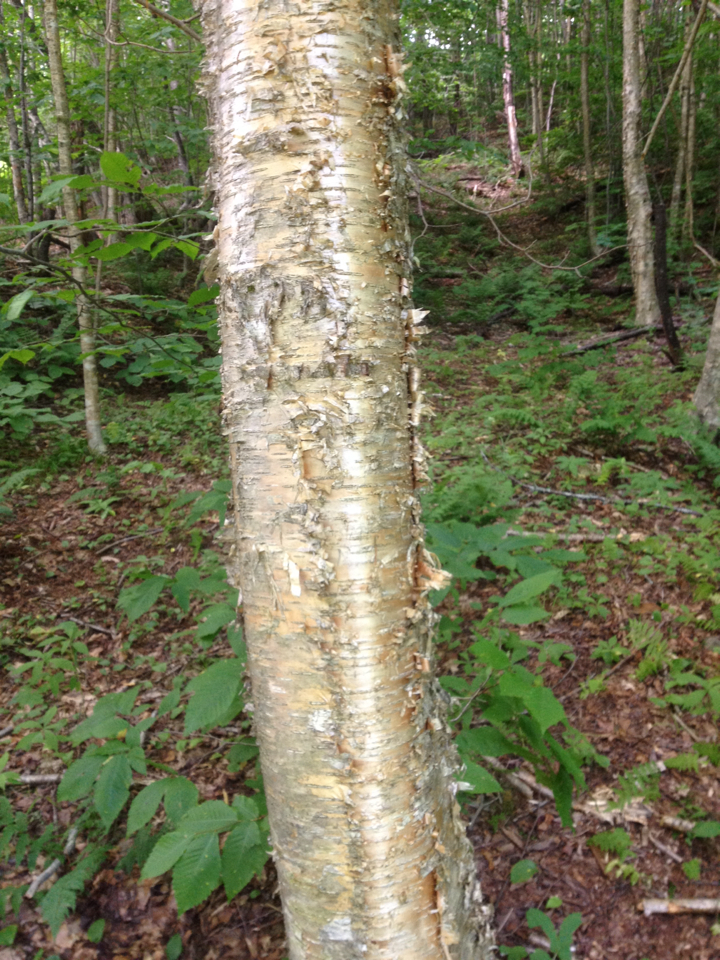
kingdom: Plantae
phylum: Tracheophyta
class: Magnoliopsida
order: Fagales
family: Betulaceae
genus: Betula
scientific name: Betula alleghaniensis
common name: Yellow birch
